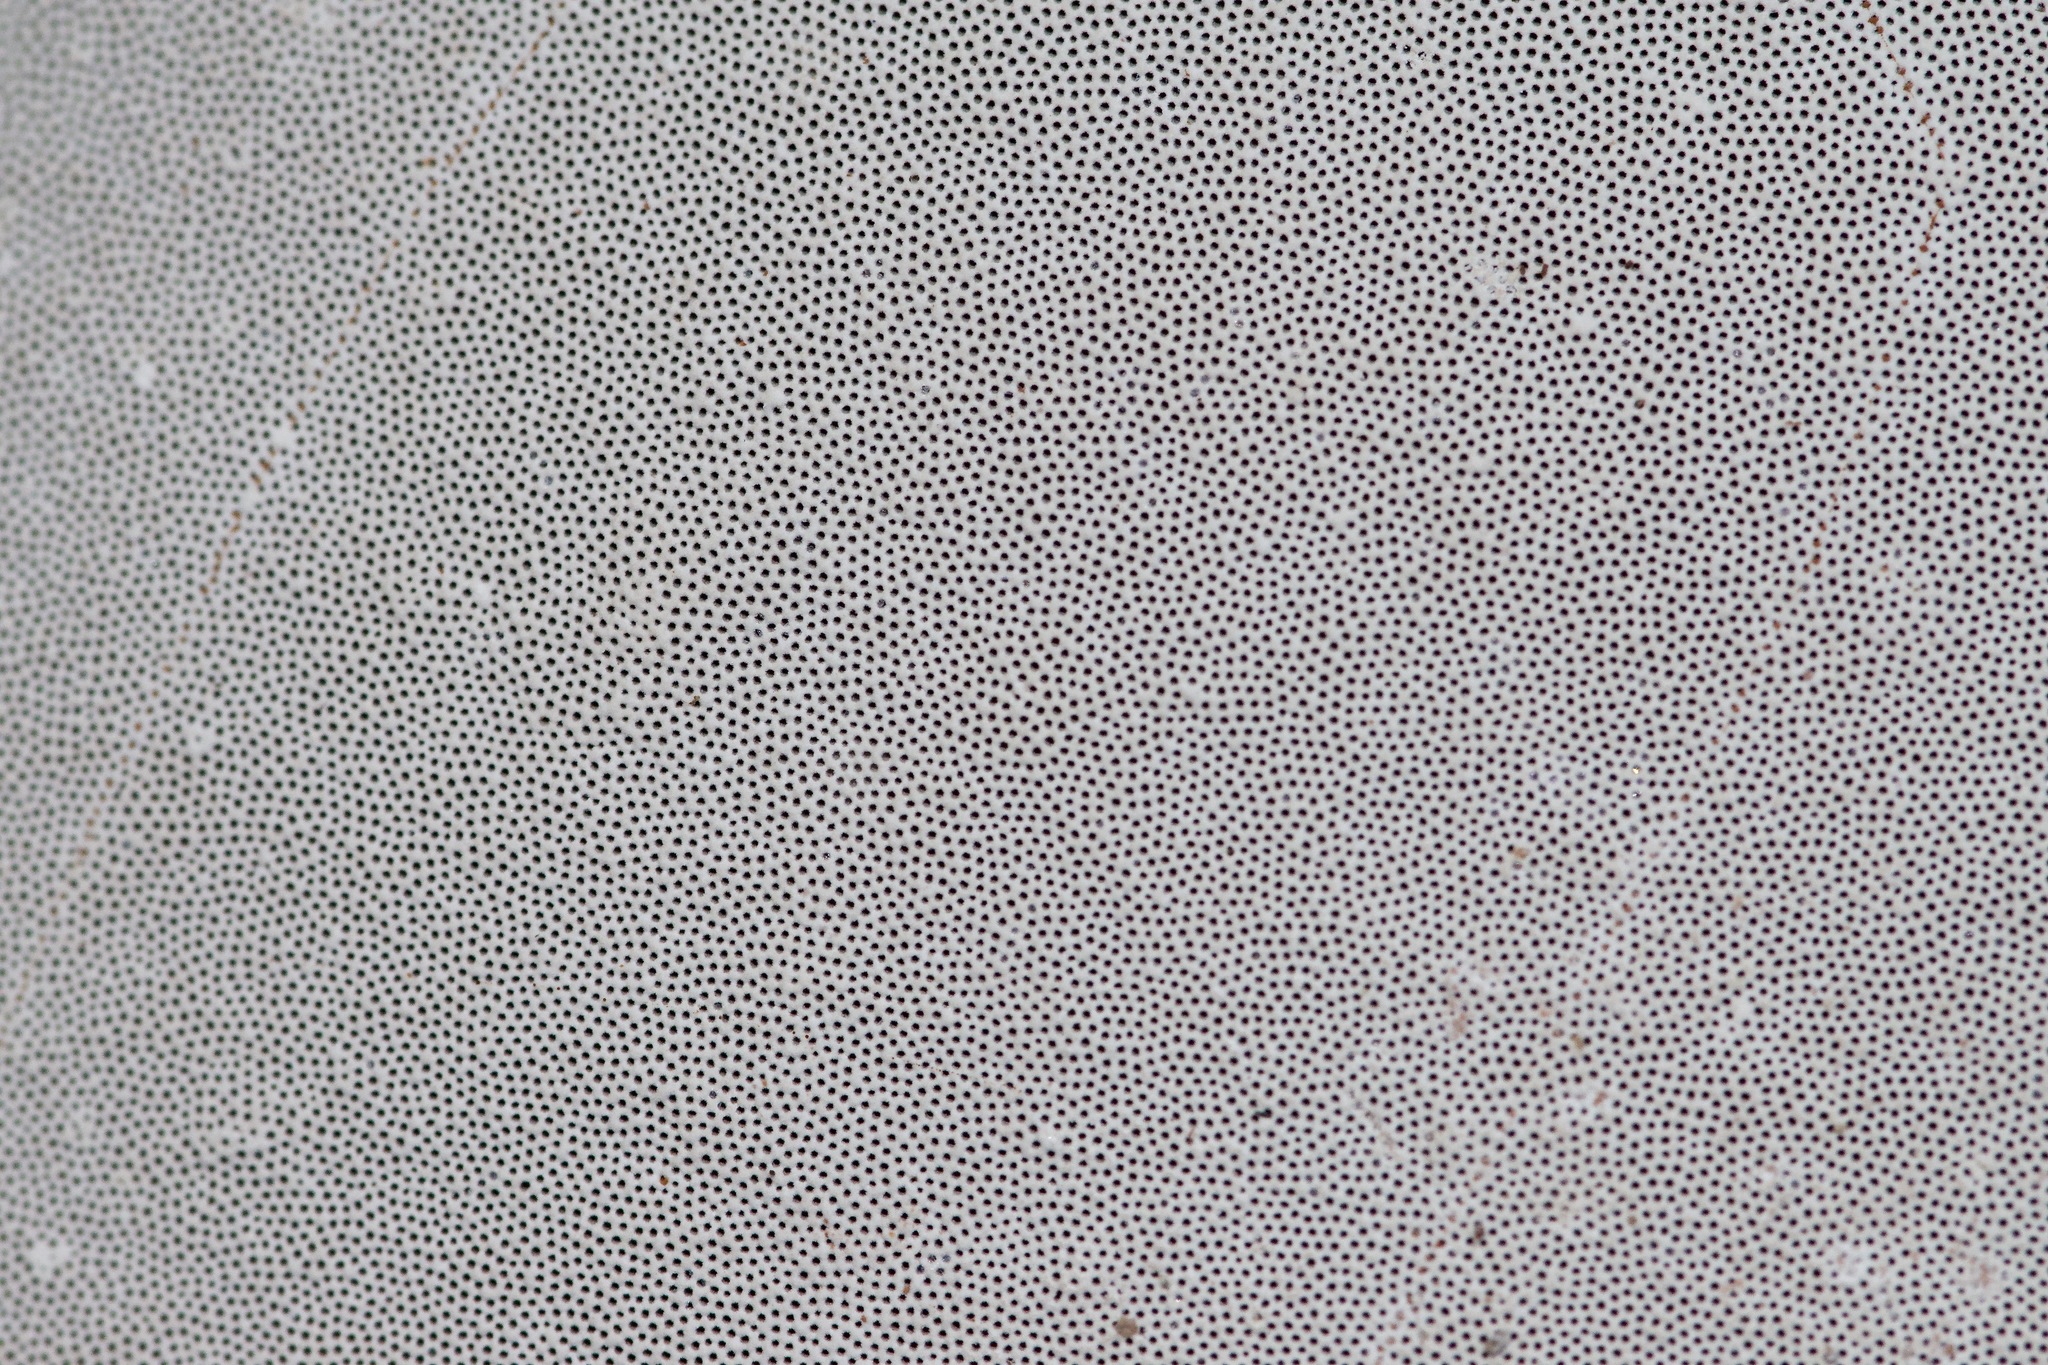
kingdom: Fungi
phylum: Basidiomycota
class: Agaricomycetes
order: Polyporales
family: Polyporaceae
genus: Ganoderma
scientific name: Ganoderma applanatum
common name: Artist's bracket
